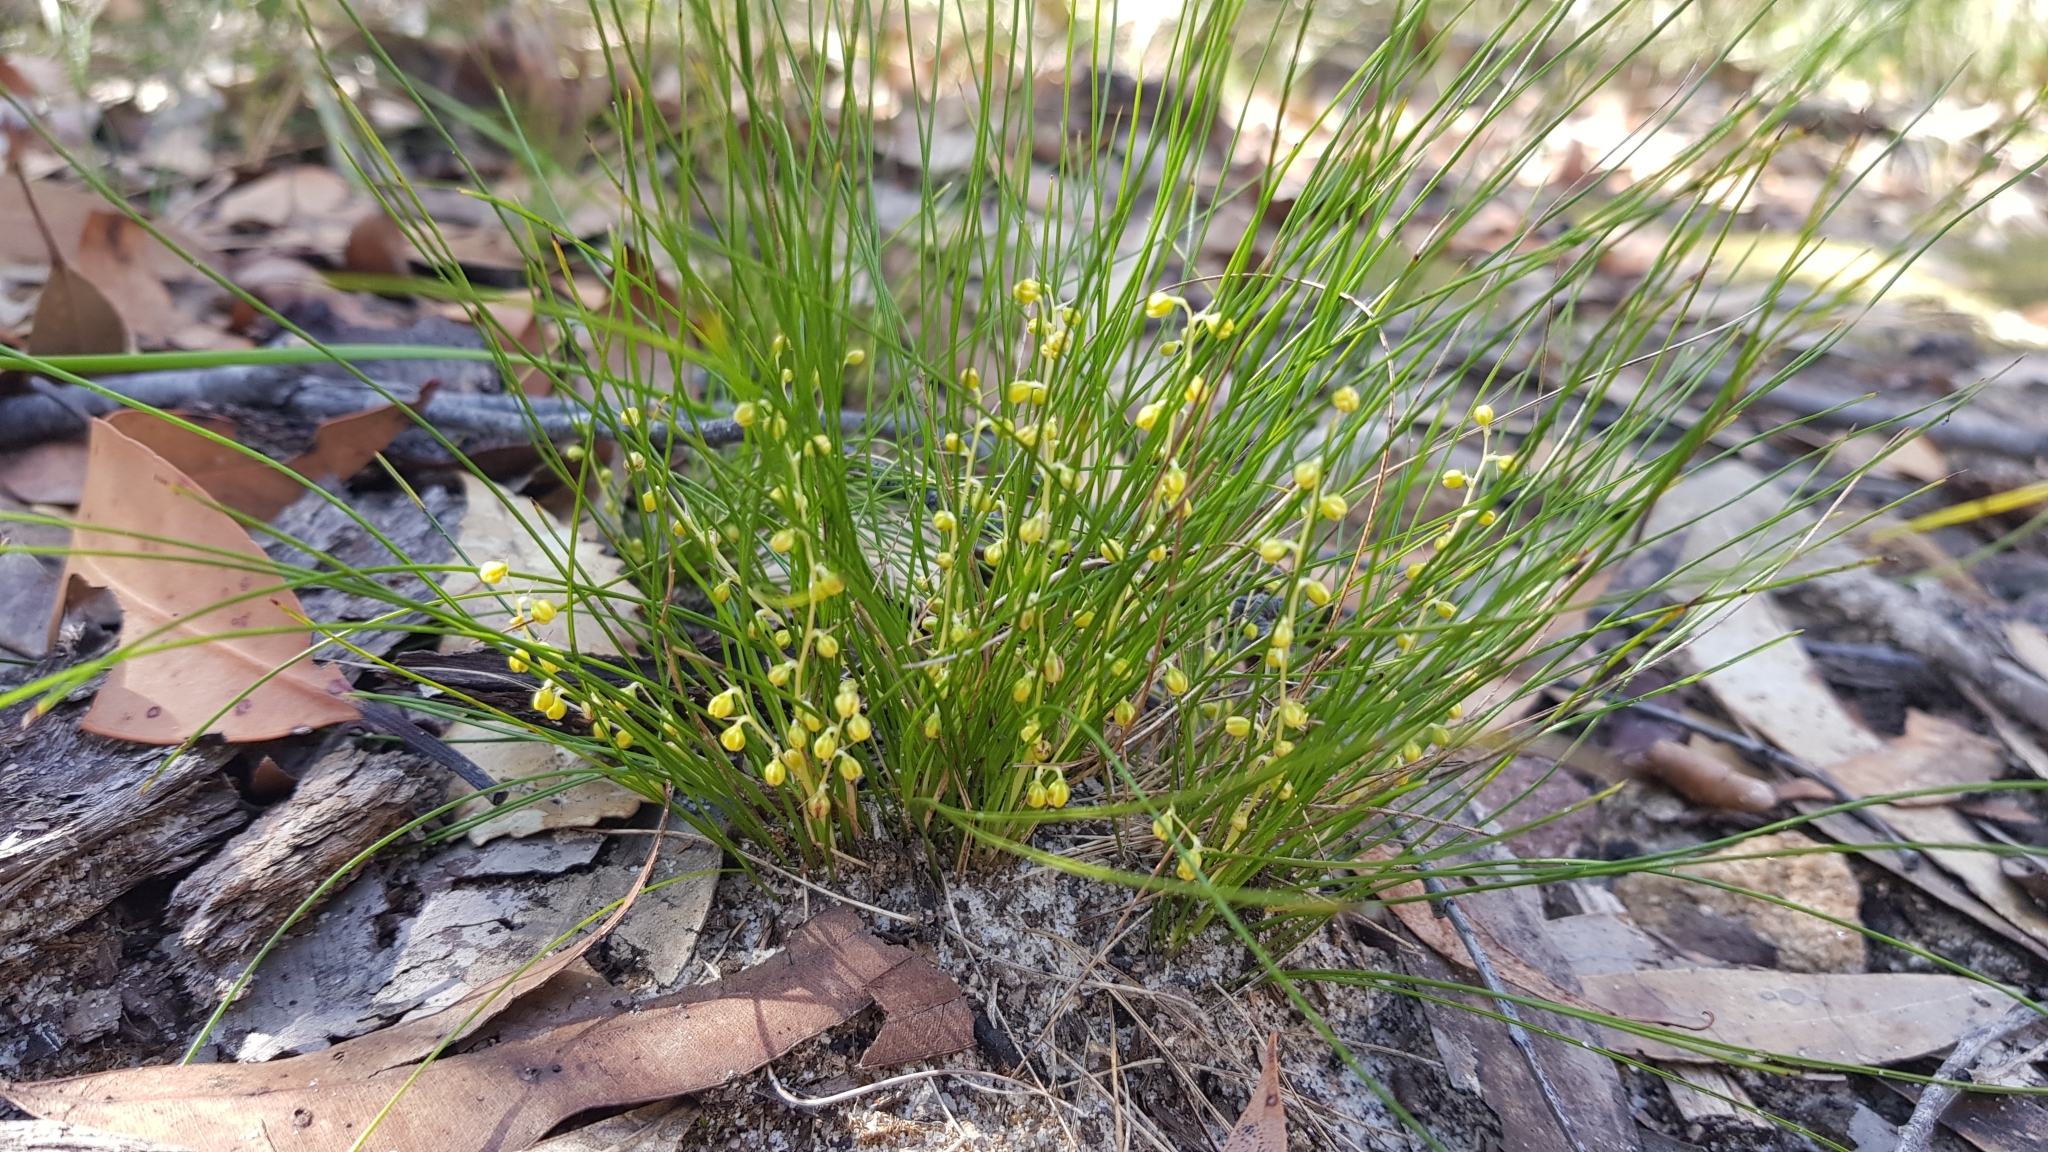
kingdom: Plantae
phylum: Tracheophyta
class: Liliopsida
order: Asparagales
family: Asparagaceae
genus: Lomandra
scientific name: Lomandra filiformis
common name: Wattle mat-rush
